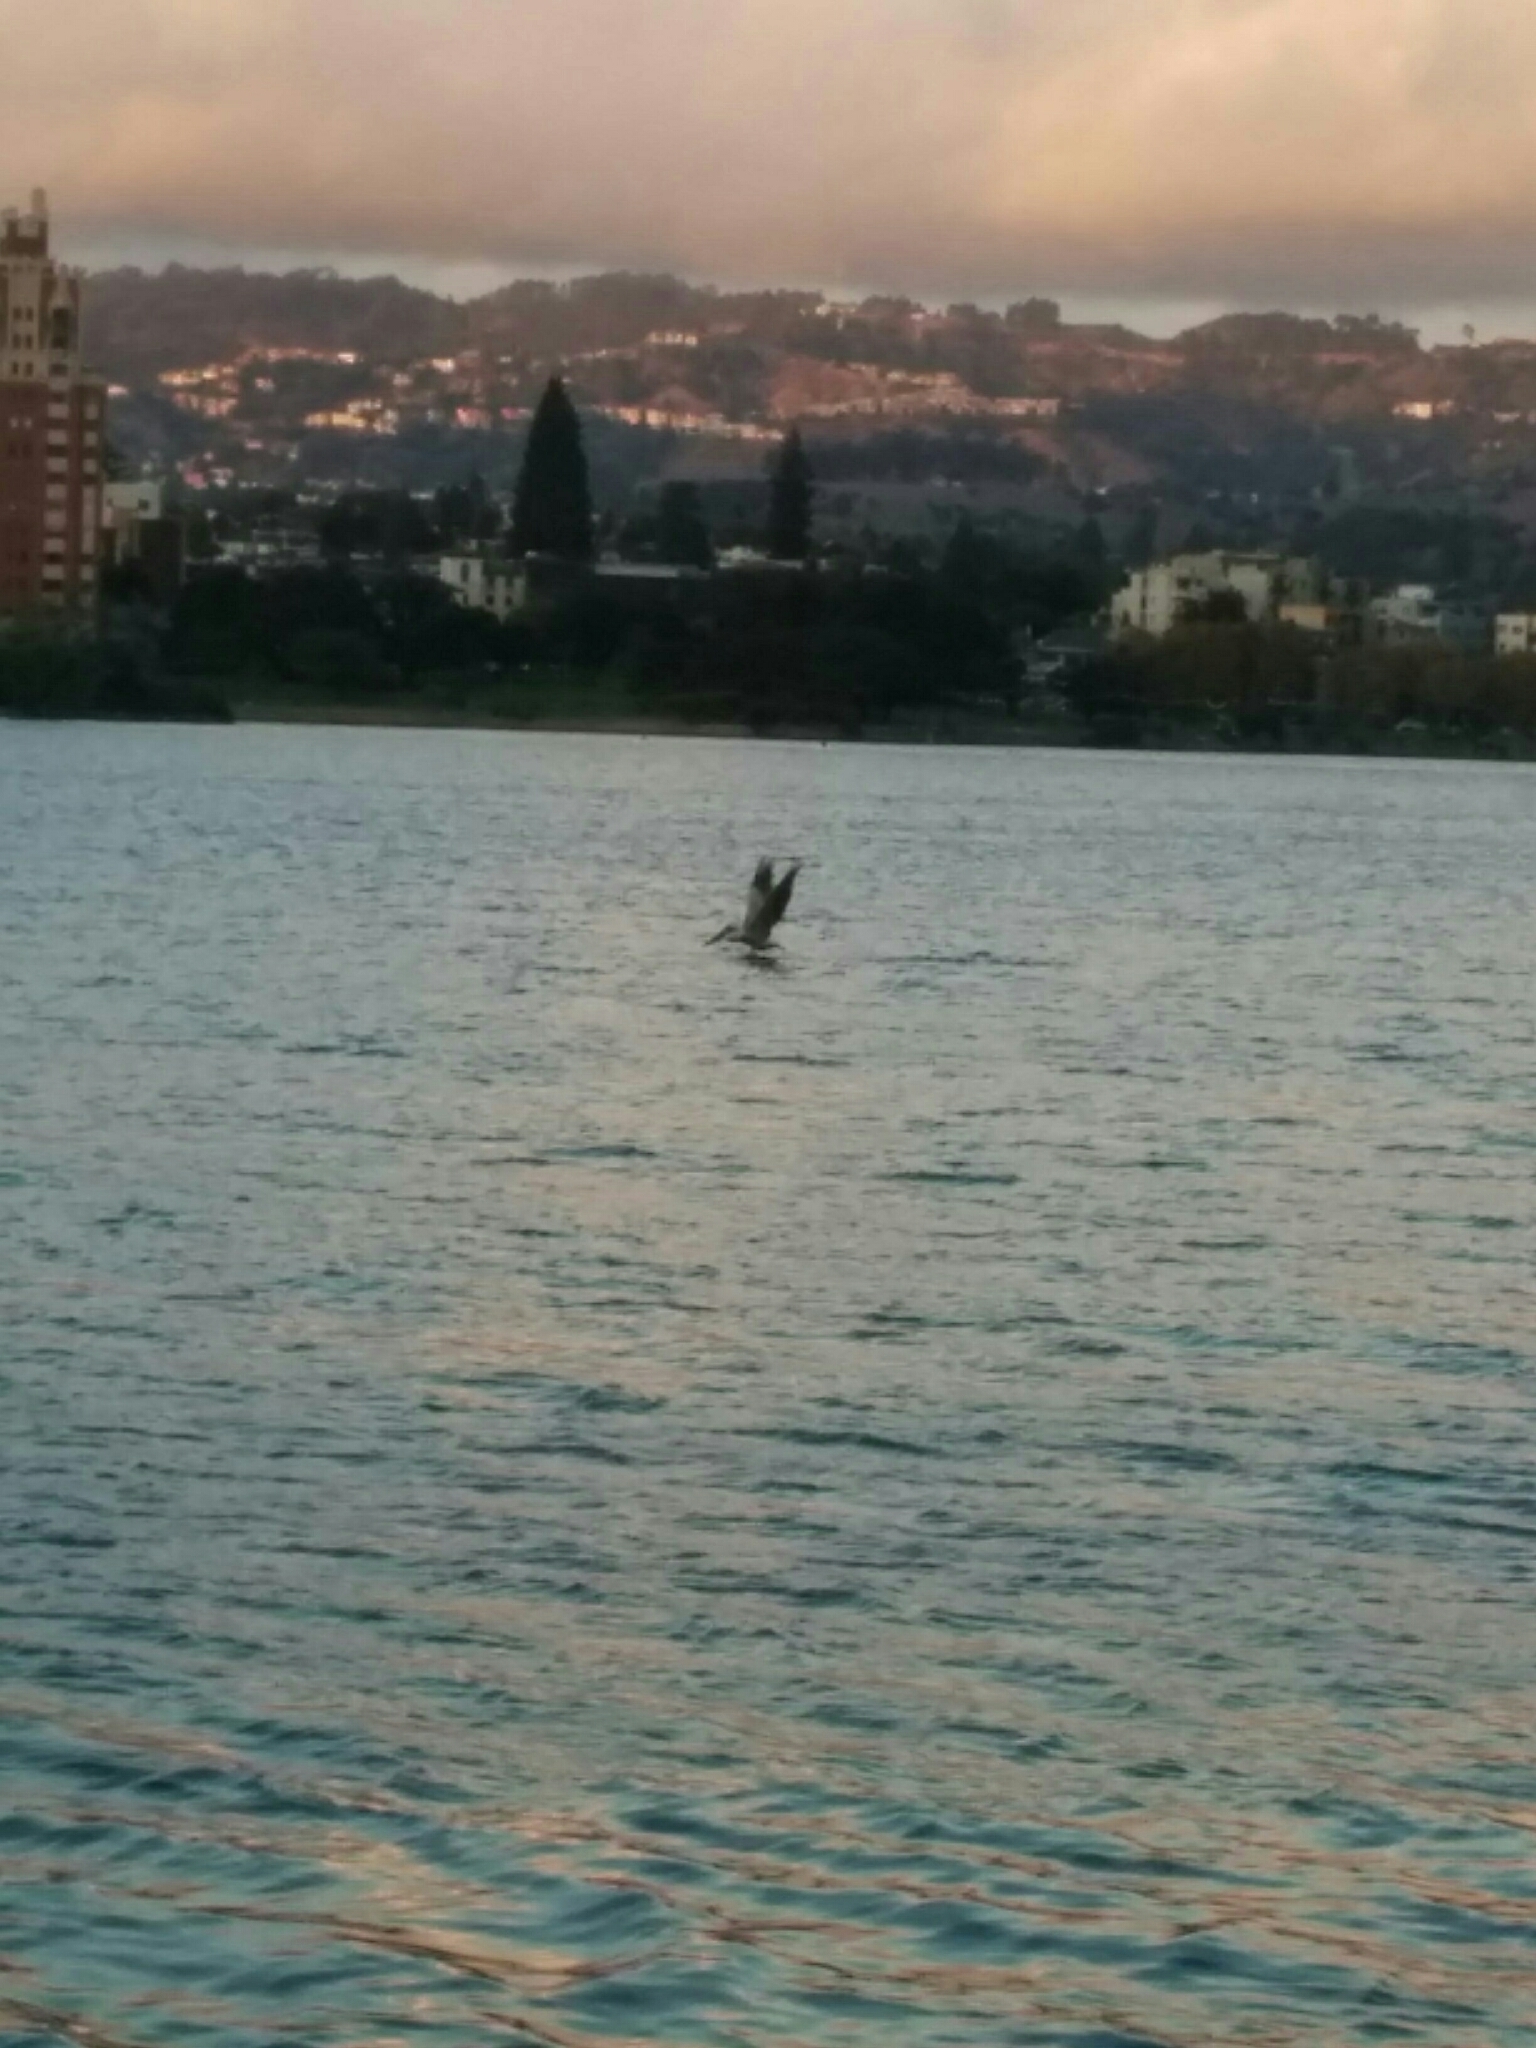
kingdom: Animalia
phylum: Chordata
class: Aves
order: Pelecaniformes
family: Pelecanidae
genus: Pelecanus
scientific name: Pelecanus erythrorhynchos
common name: American white pelican
